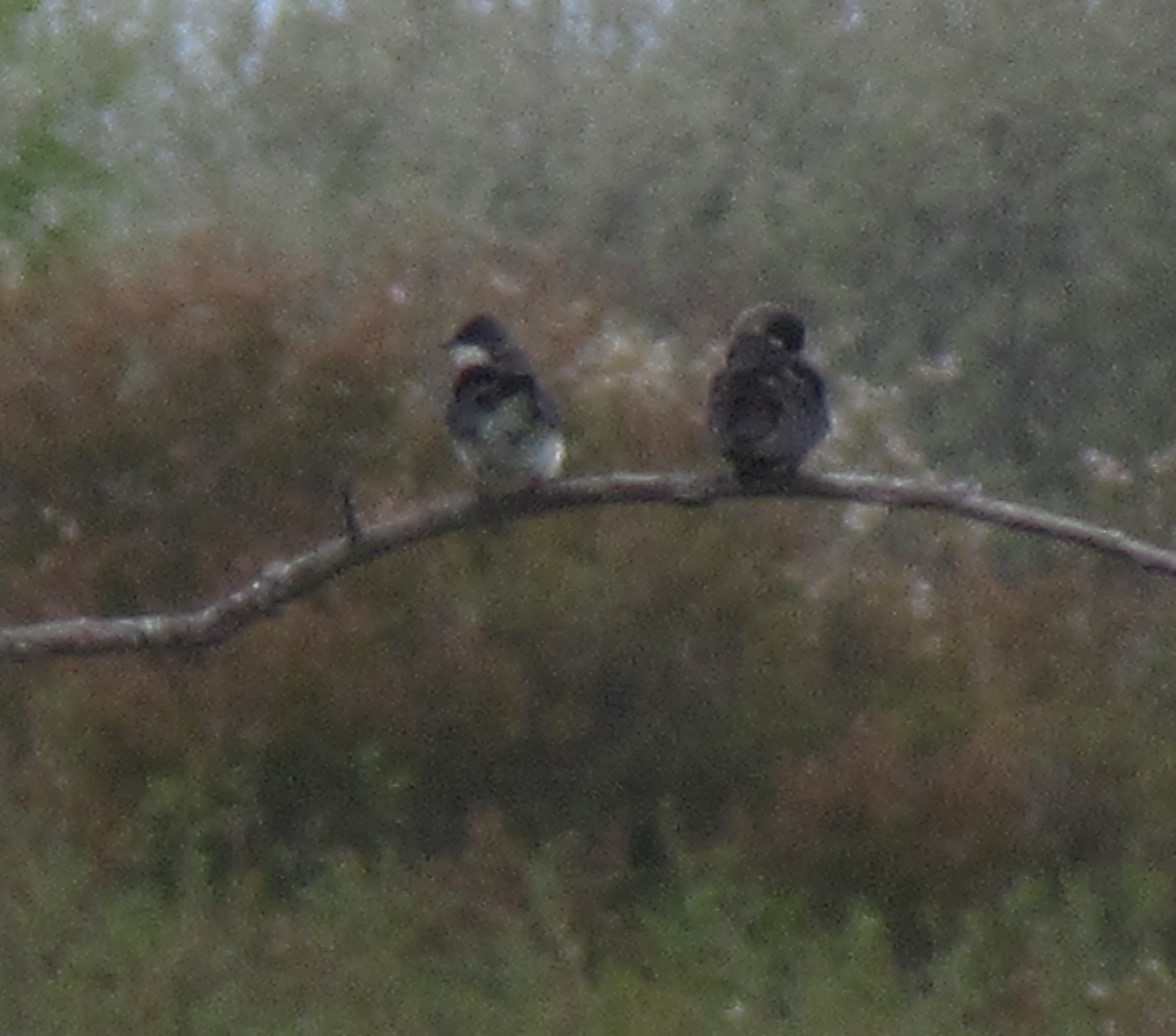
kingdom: Animalia
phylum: Chordata
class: Aves
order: Passeriformes
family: Hirundinidae
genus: Tachycineta
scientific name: Tachycineta bicolor
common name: Tree swallow
